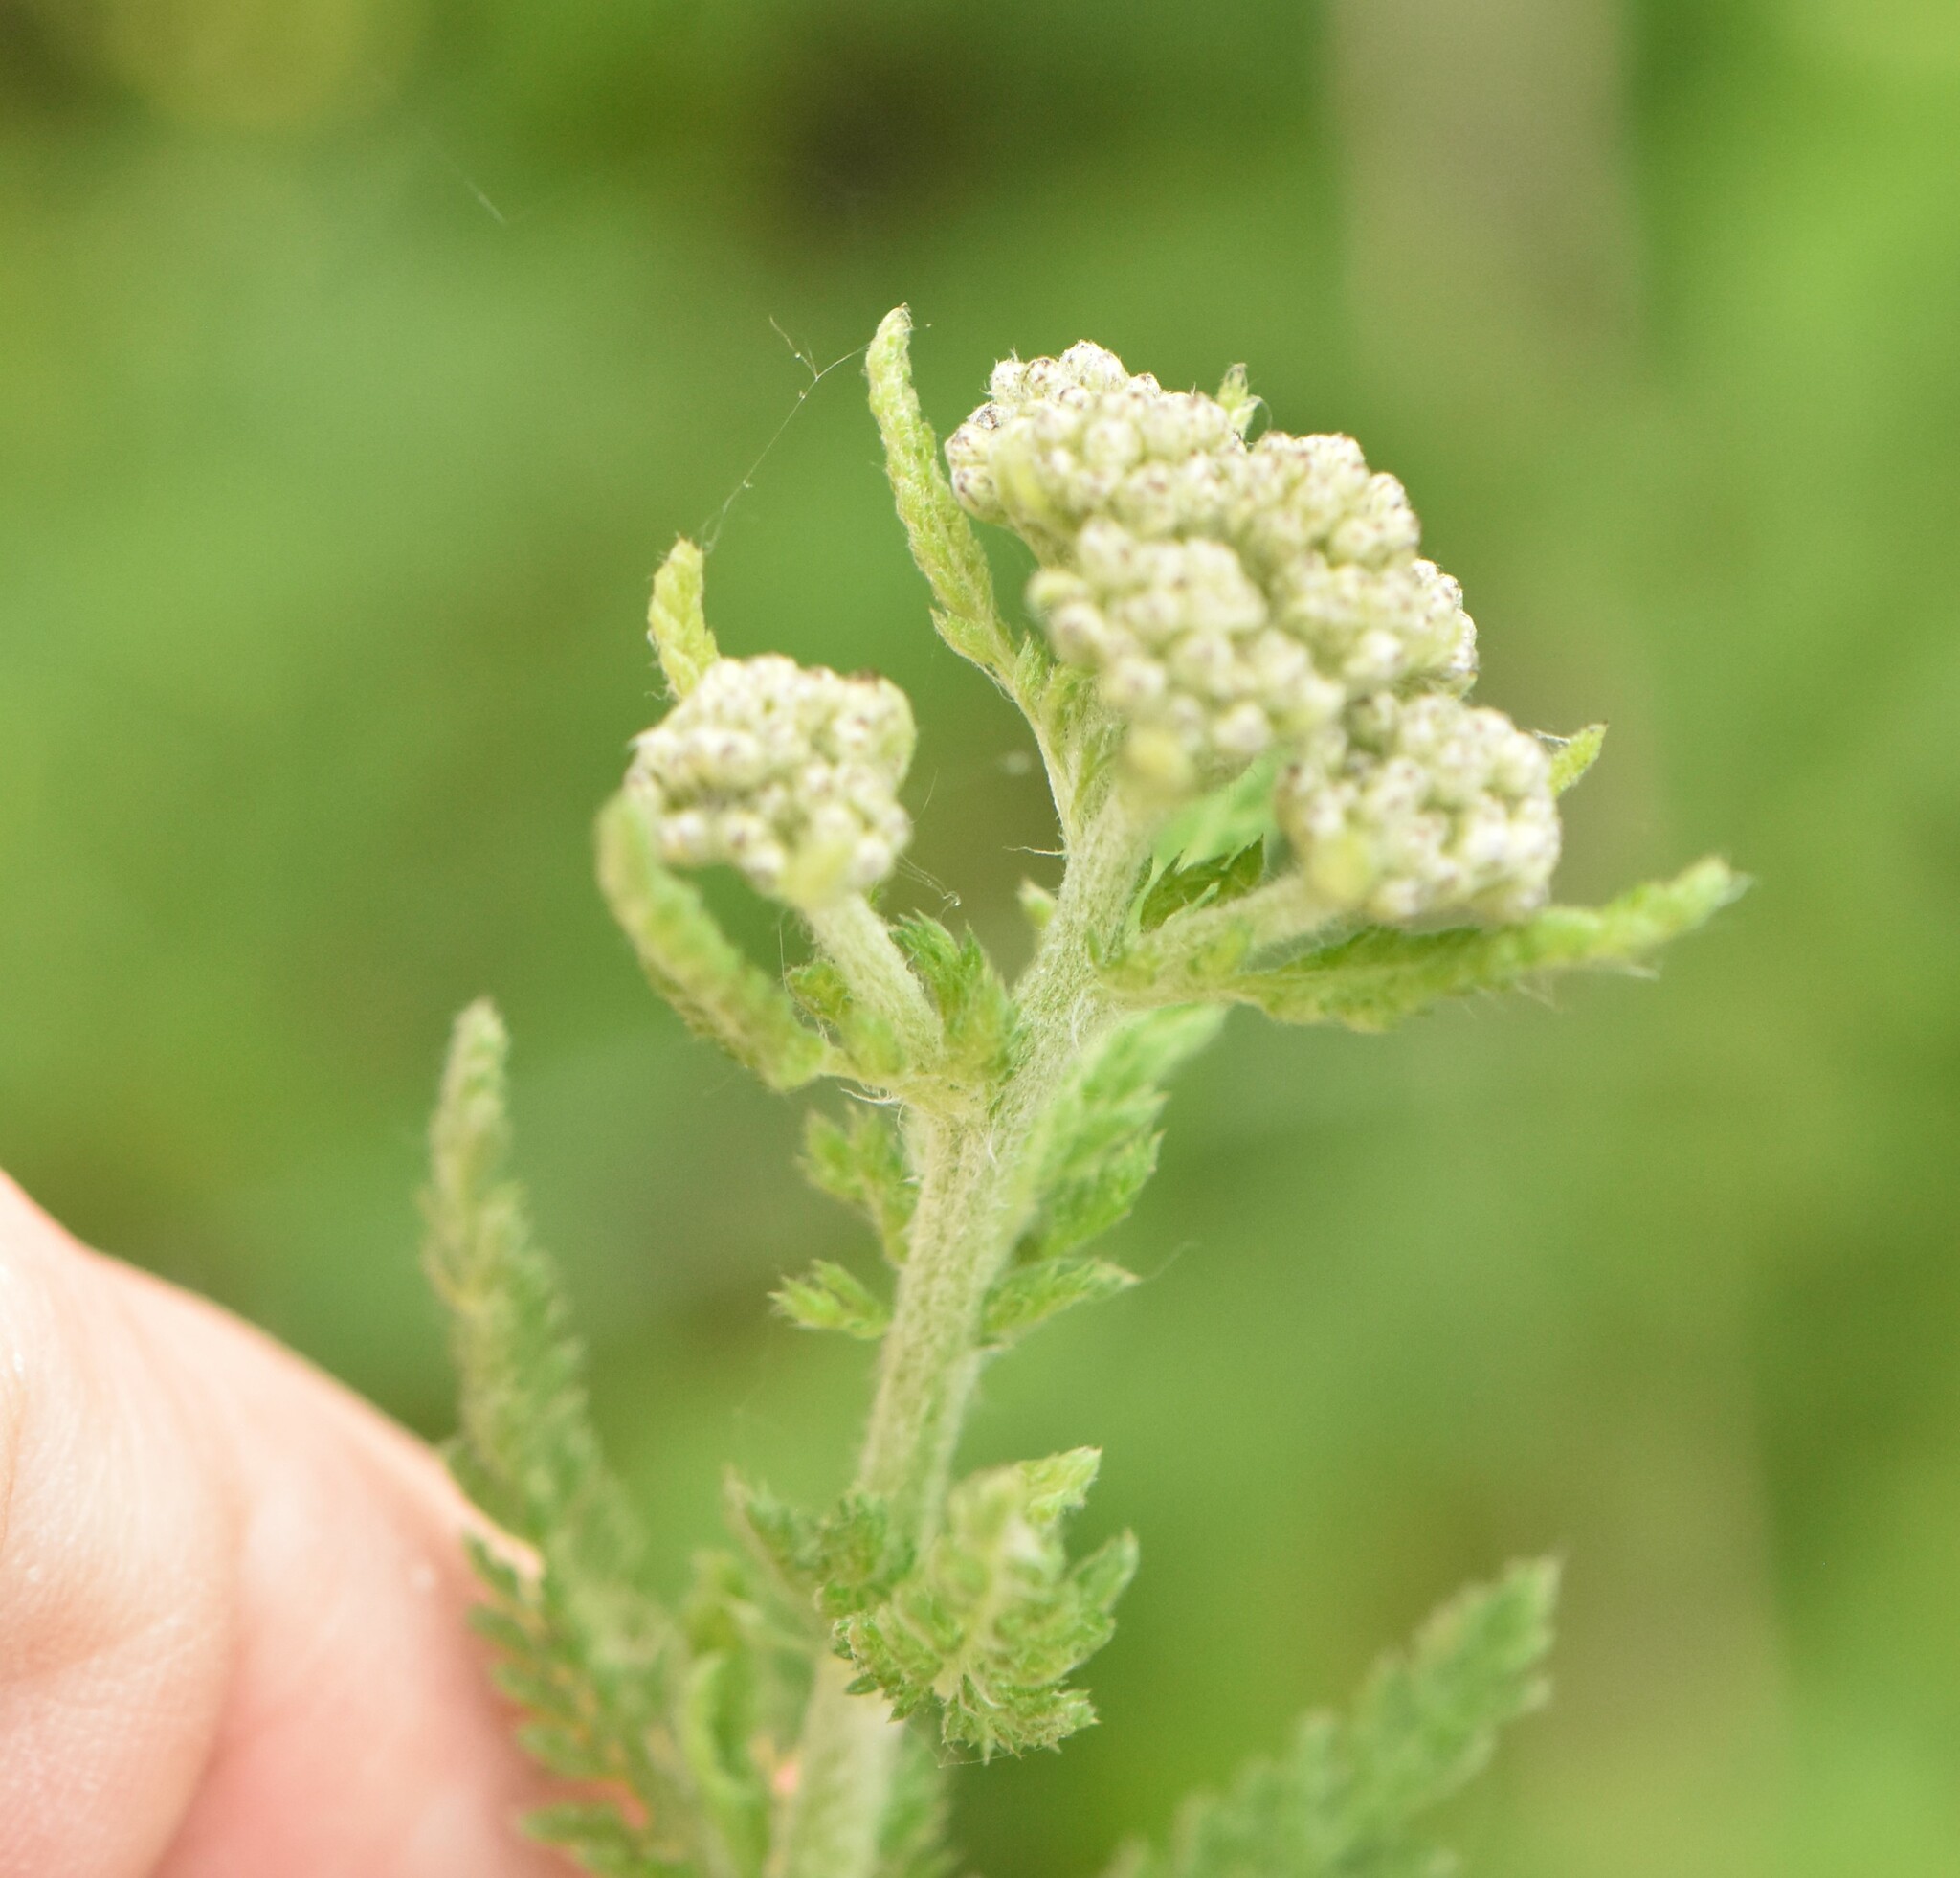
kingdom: Plantae
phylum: Tracheophyta
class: Magnoliopsida
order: Asterales
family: Asteraceae
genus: Achillea
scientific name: Achillea setacea
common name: Bristly yarrow
